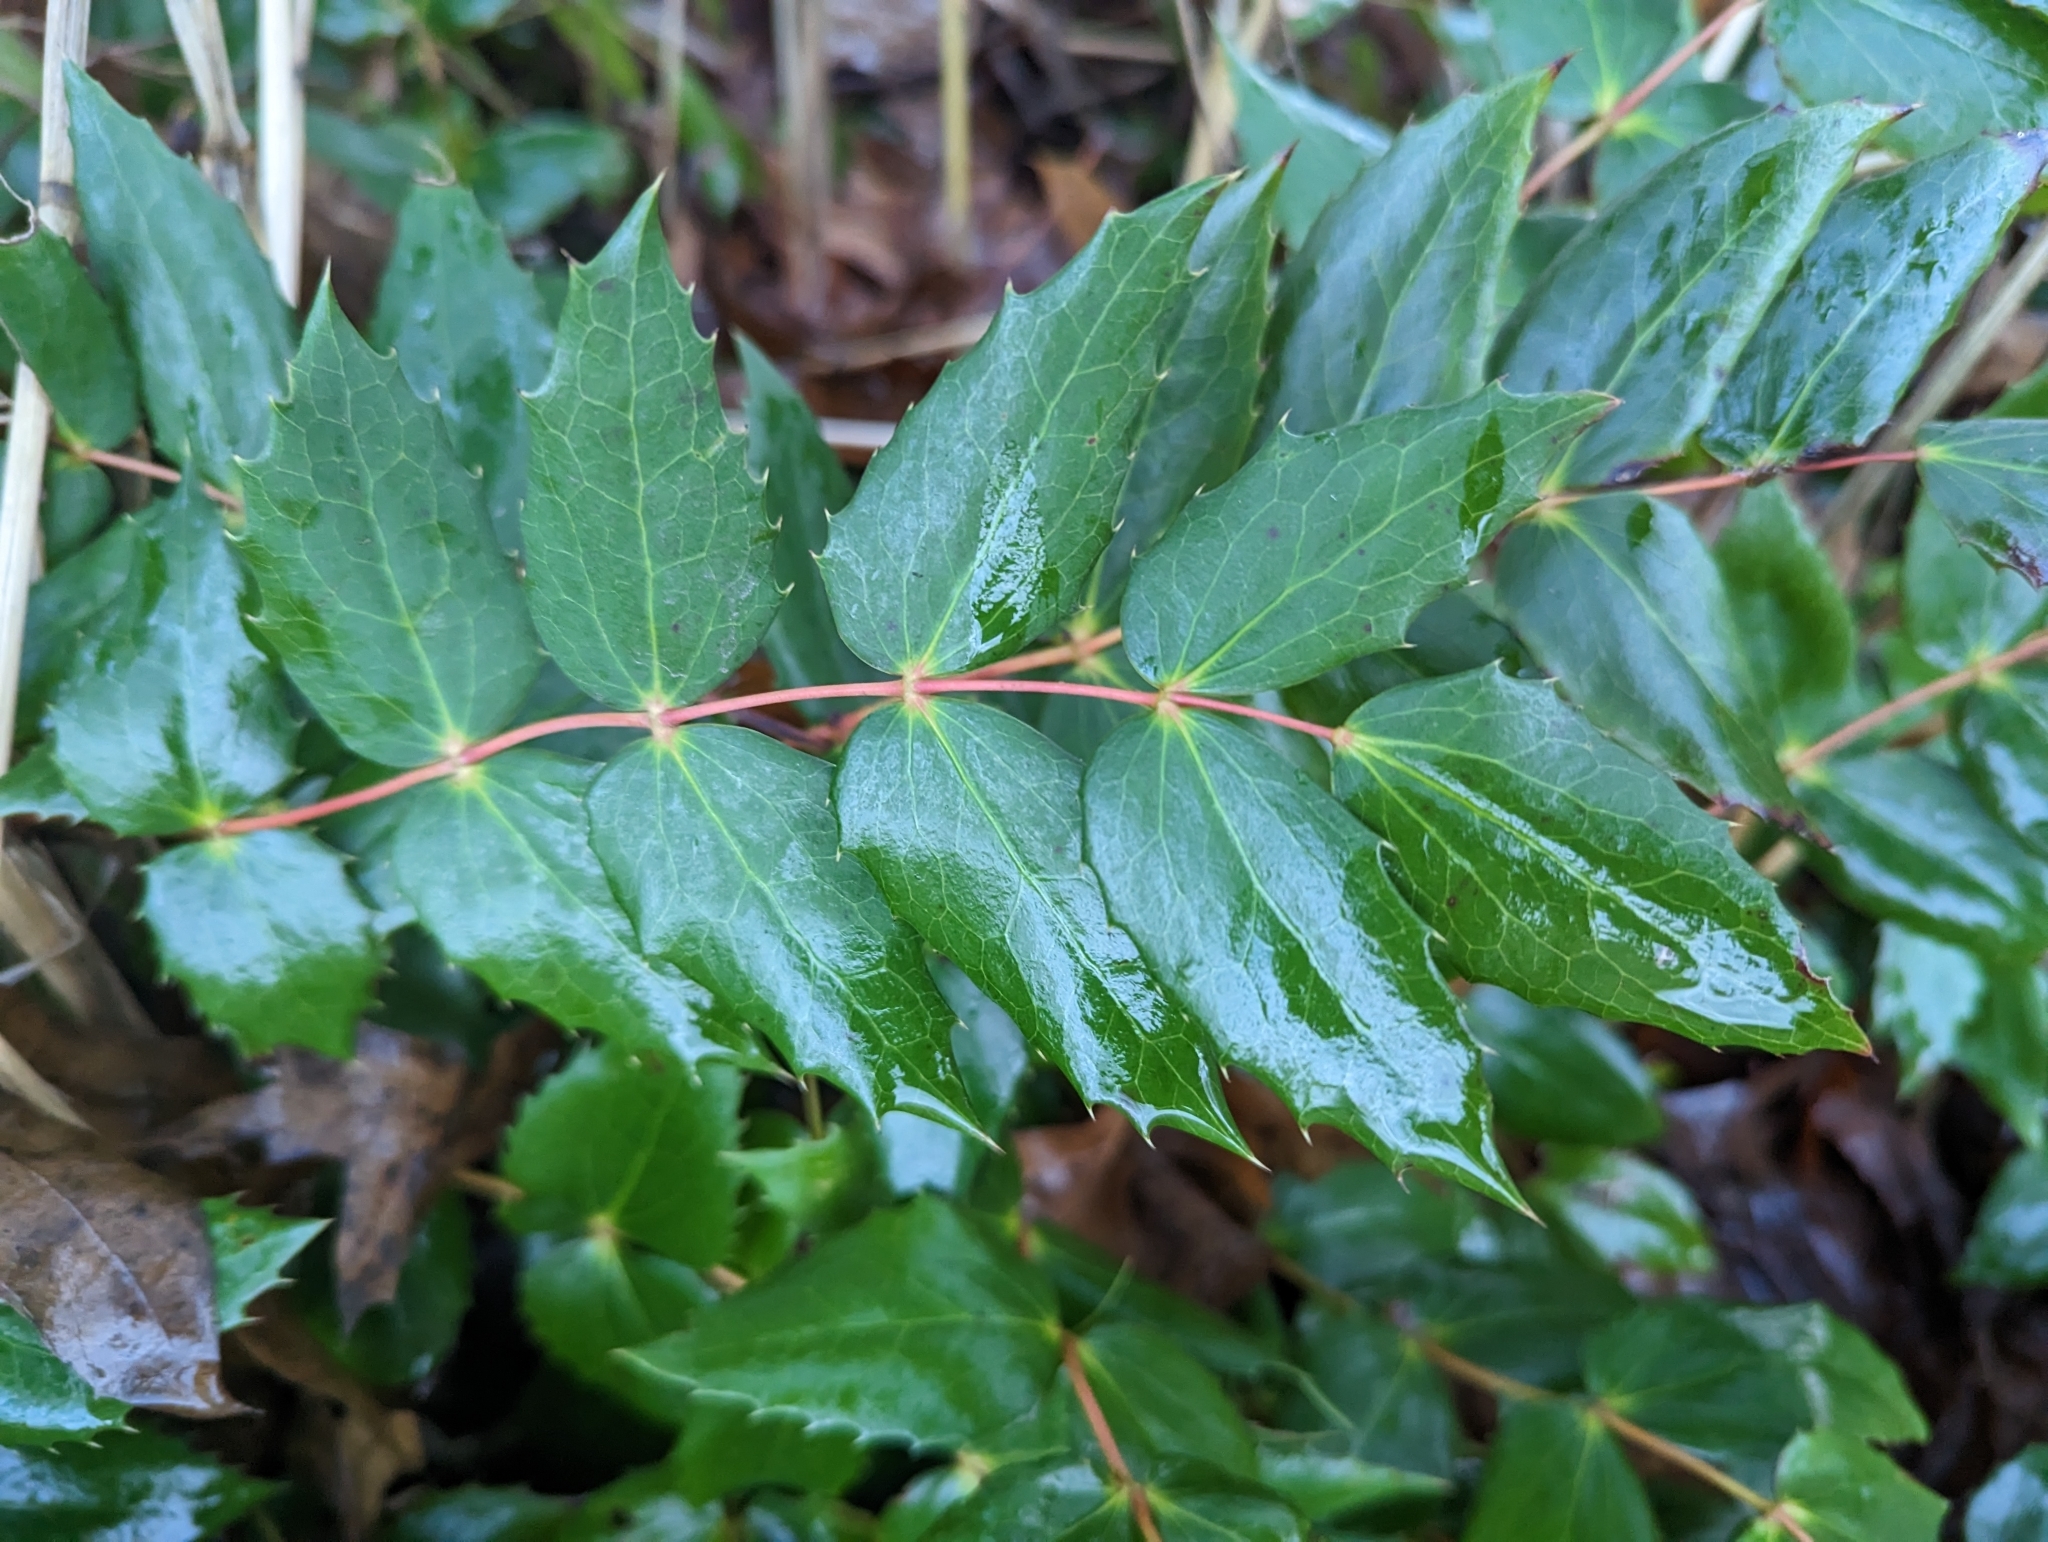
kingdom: Plantae
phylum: Tracheophyta
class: Magnoliopsida
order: Ranunculales
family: Berberidaceae
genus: Mahonia
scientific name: Mahonia nervosa
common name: Cascade oregon-grape
